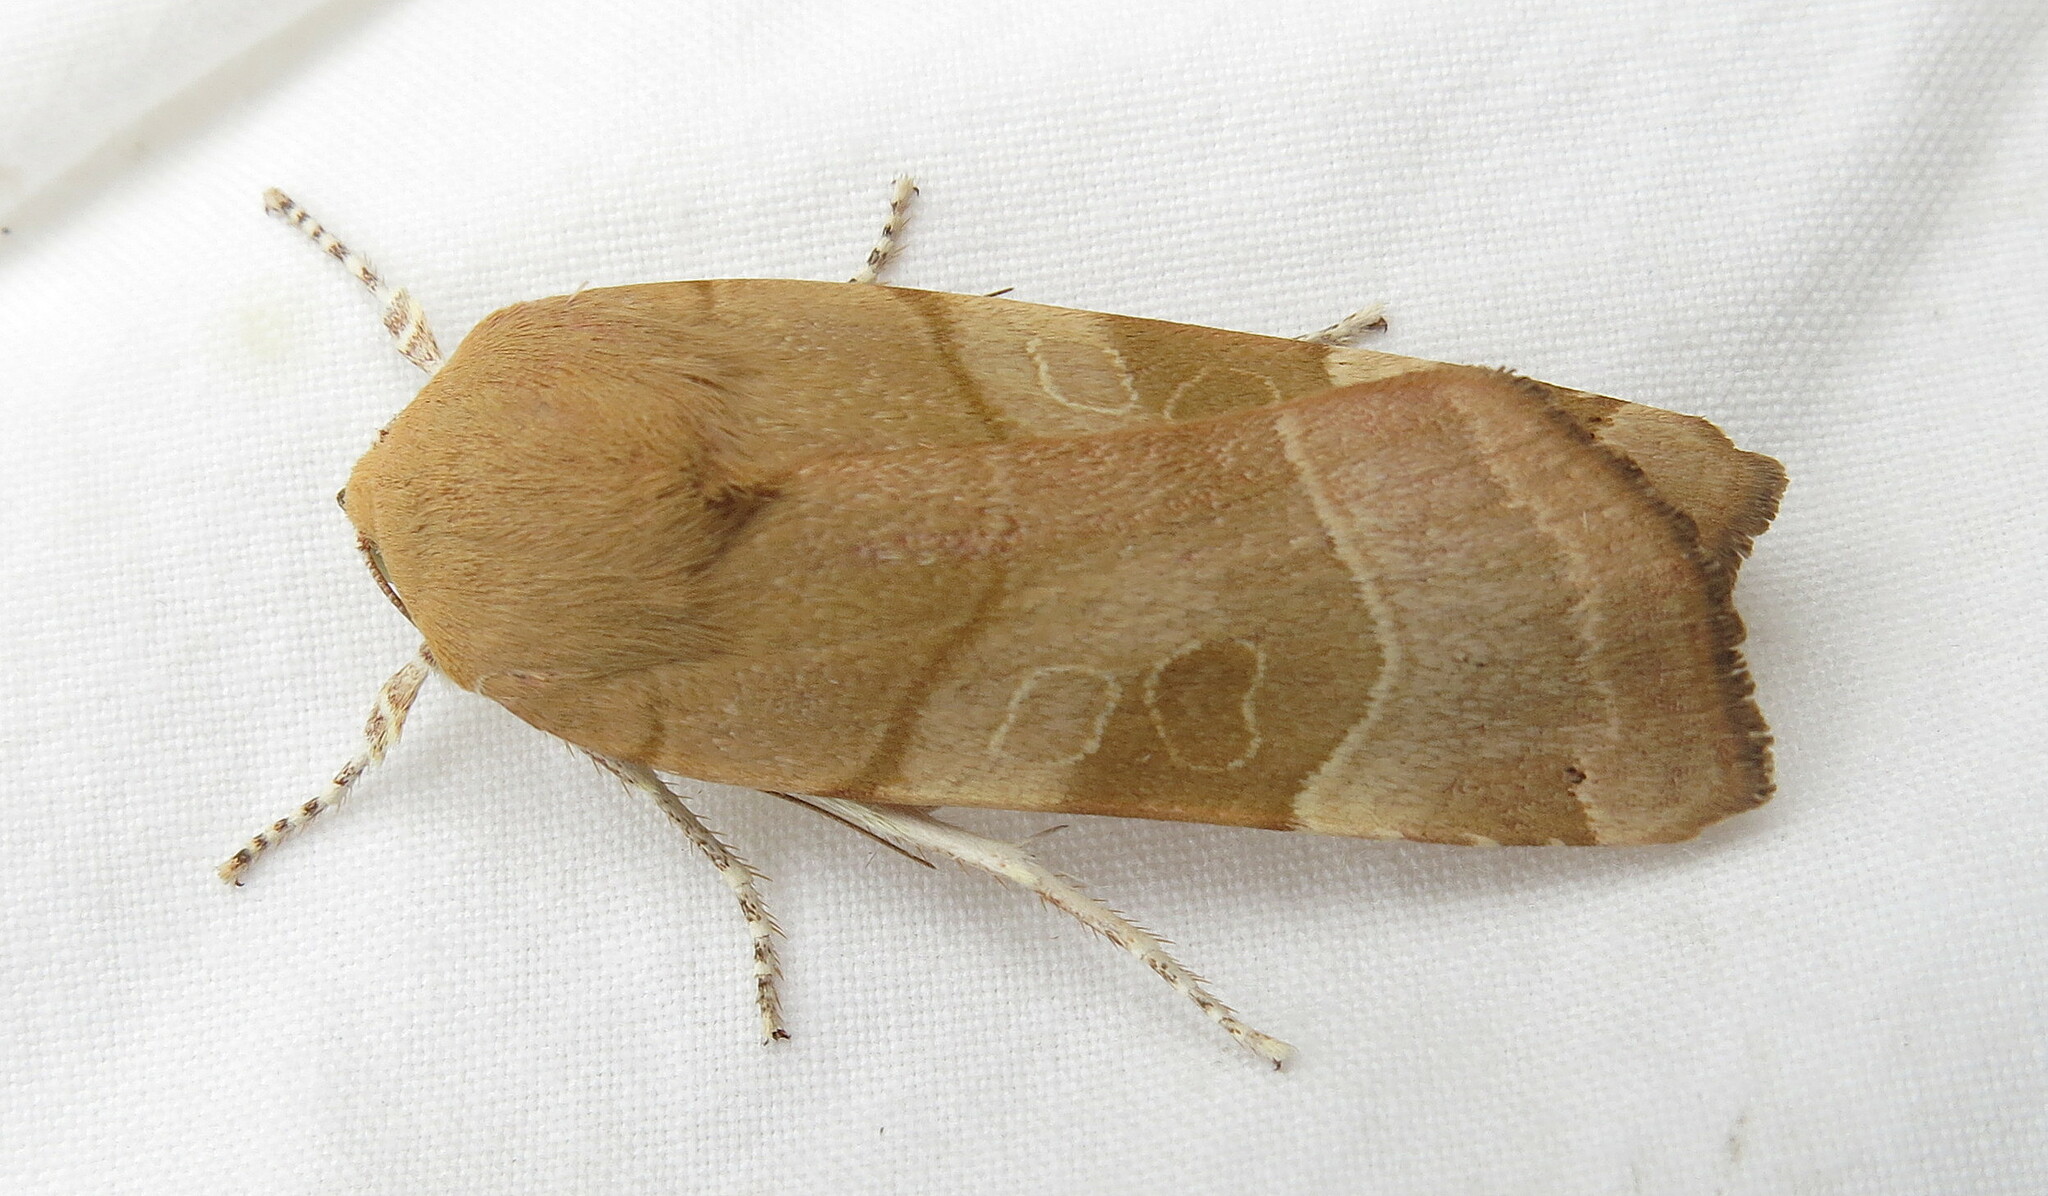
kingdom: Animalia
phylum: Arthropoda
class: Insecta
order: Lepidoptera
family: Noctuidae
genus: Noctua
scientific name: Noctua fimbriata
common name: Broad-bordered yellow underwing
